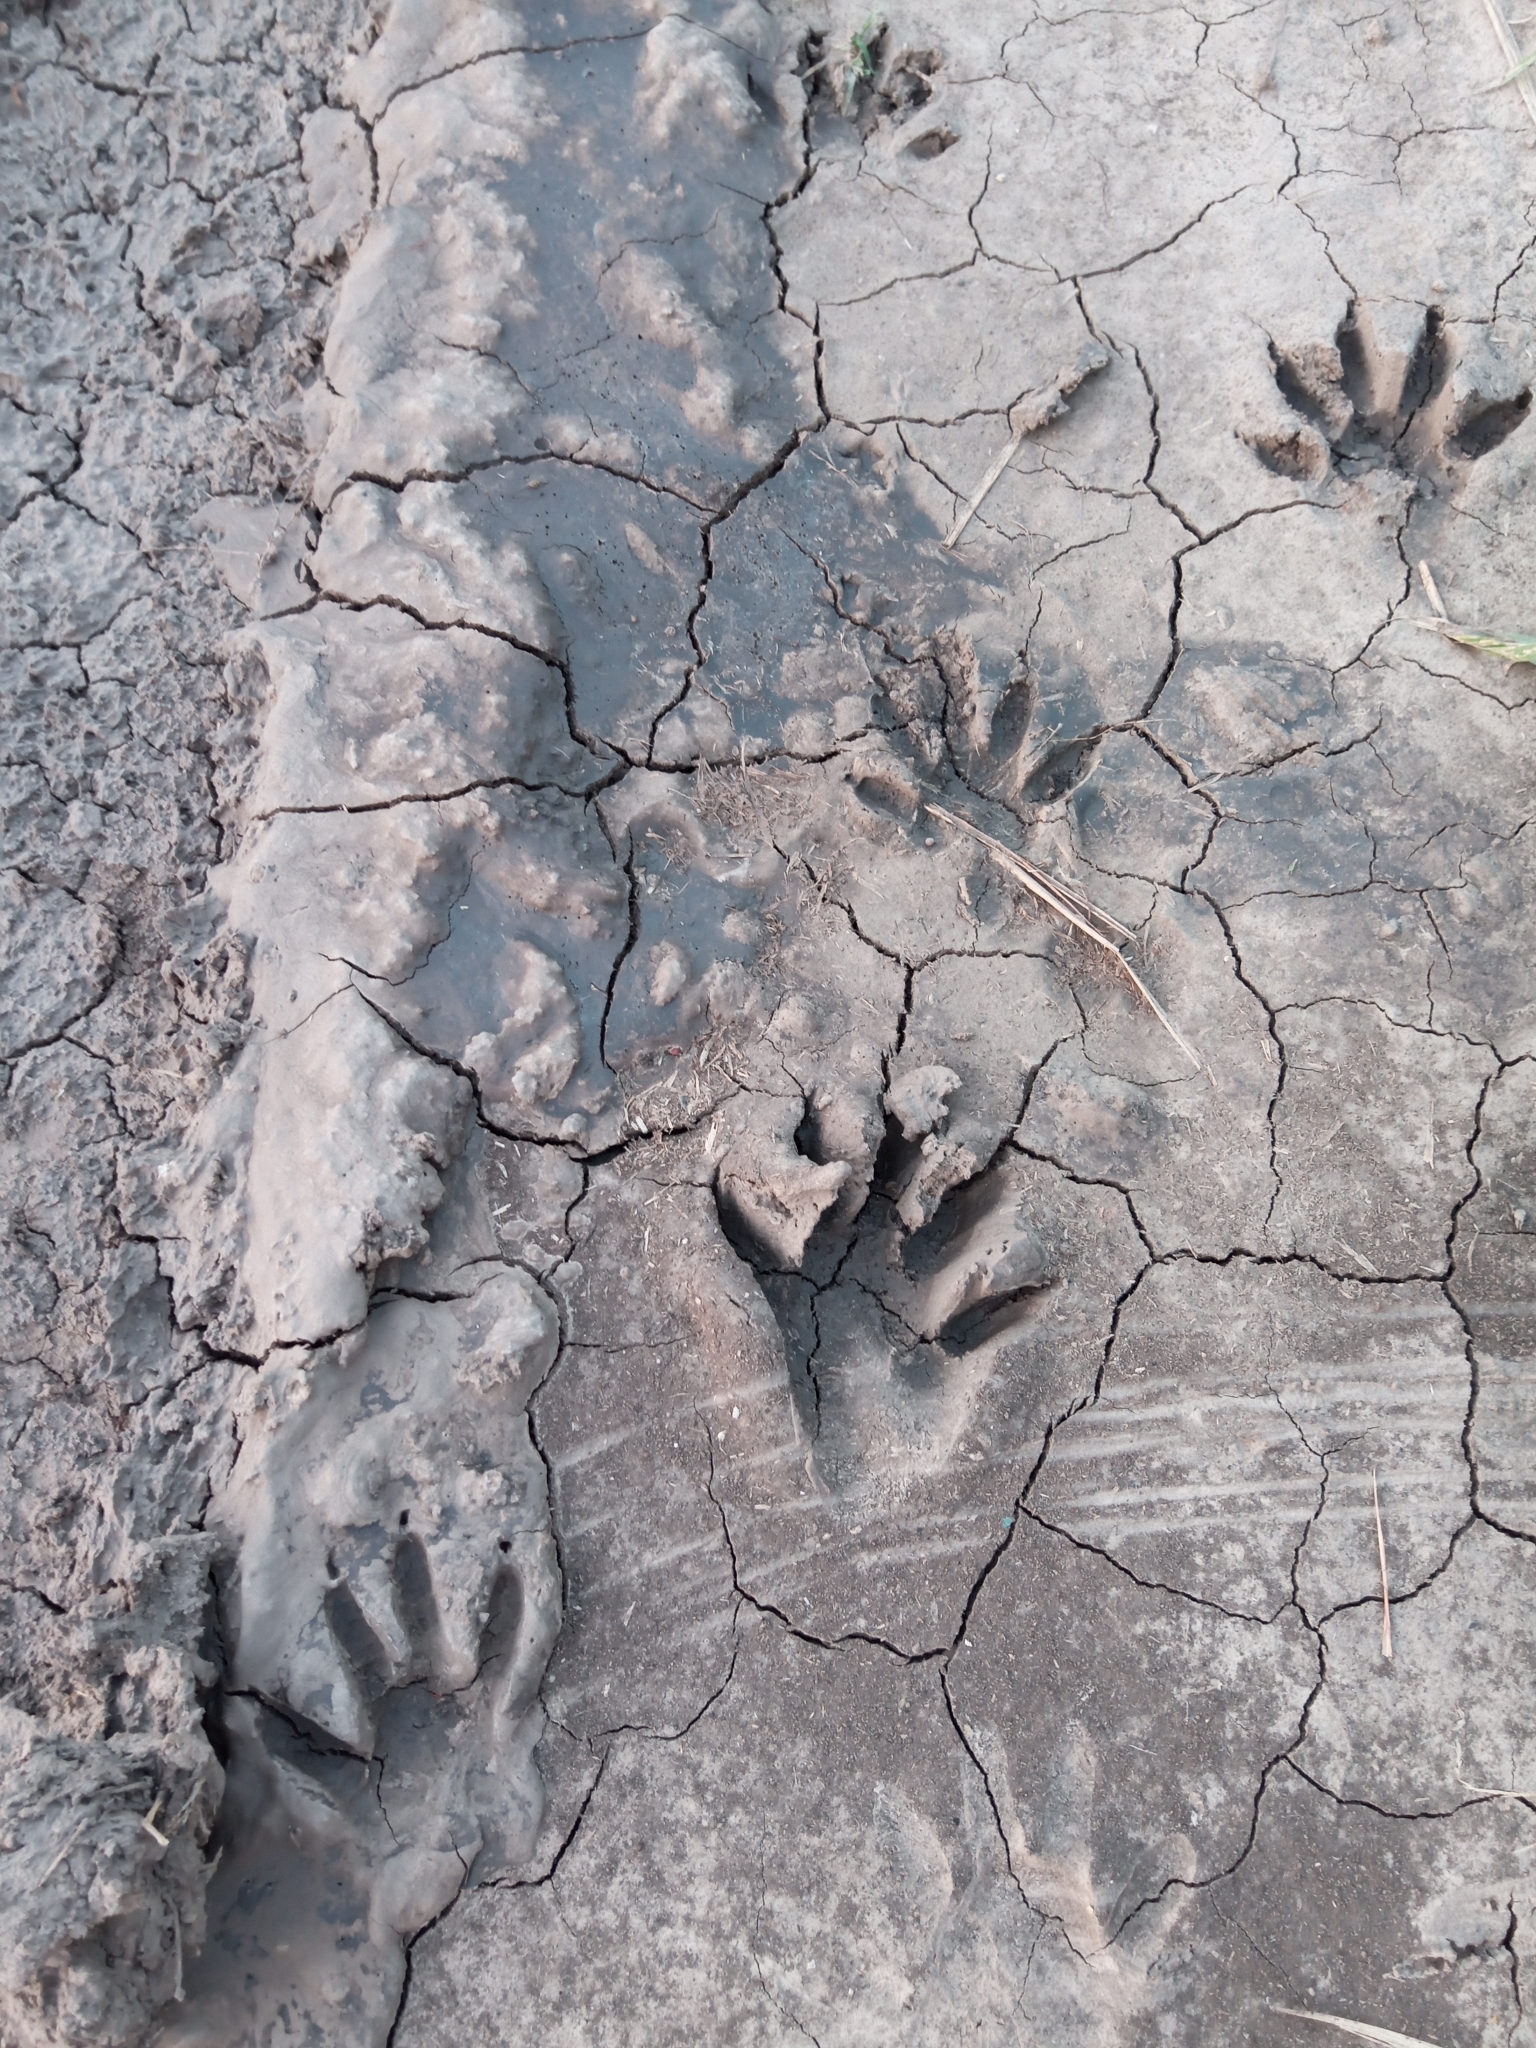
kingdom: Animalia
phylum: Chordata
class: Mammalia
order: Carnivora
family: Procyonidae
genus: Procyon
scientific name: Procyon cancrivorus
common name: Crab-eating raccoon
